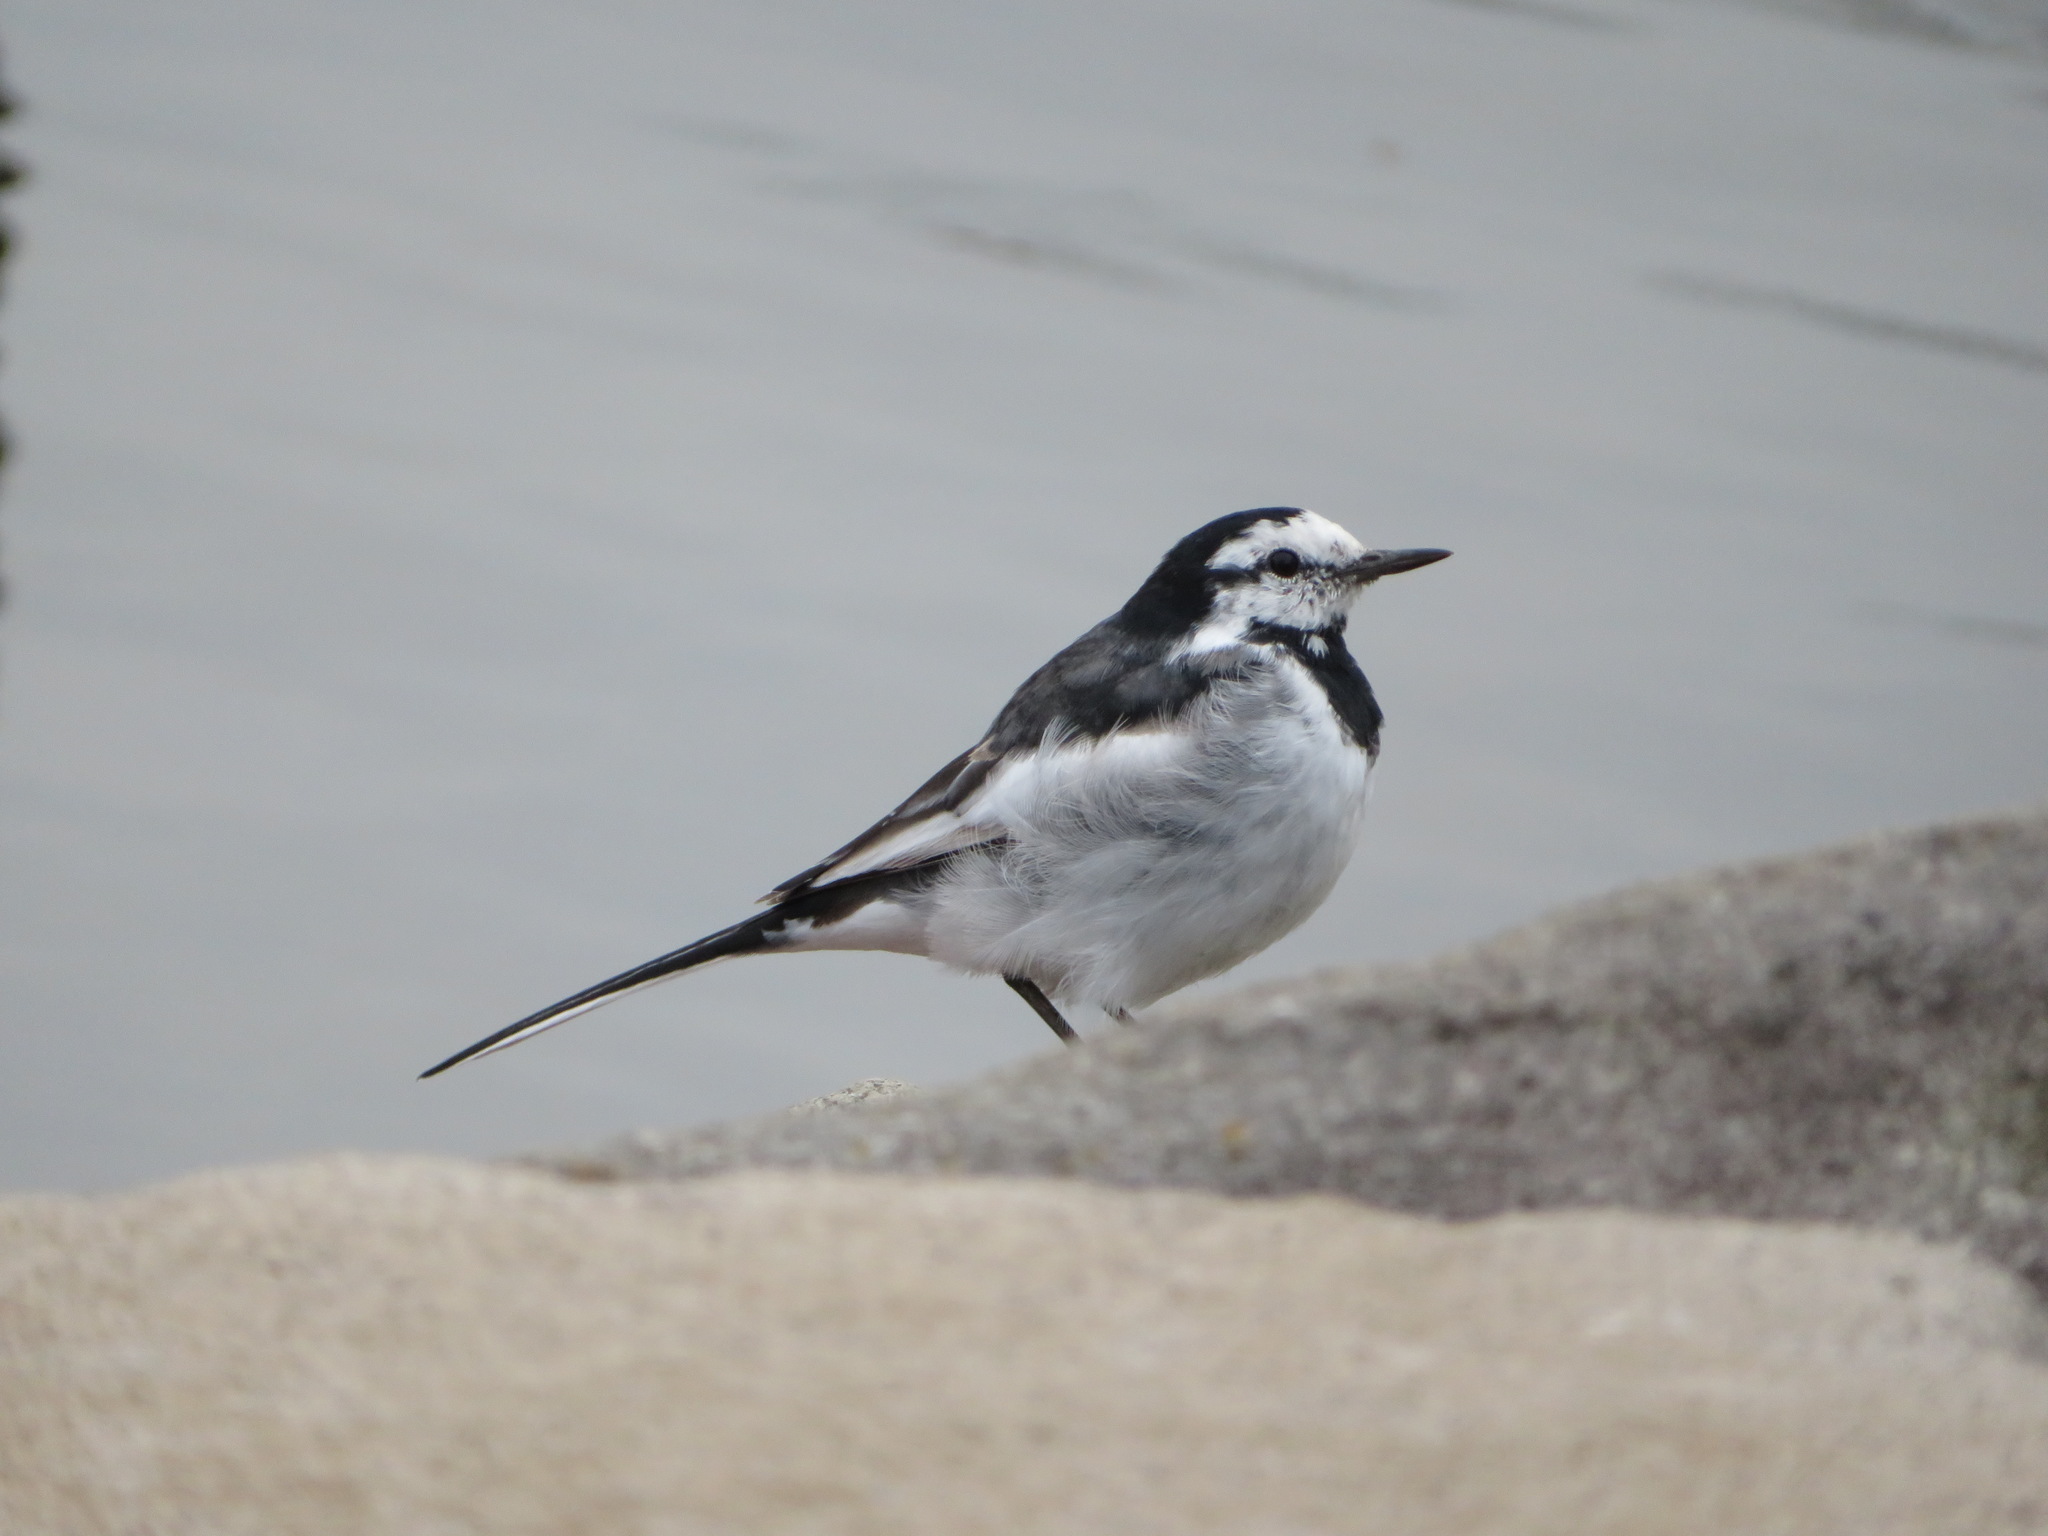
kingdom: Animalia
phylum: Chordata
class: Aves
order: Passeriformes
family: Motacillidae
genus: Motacilla
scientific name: Motacilla alba
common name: White wagtail
